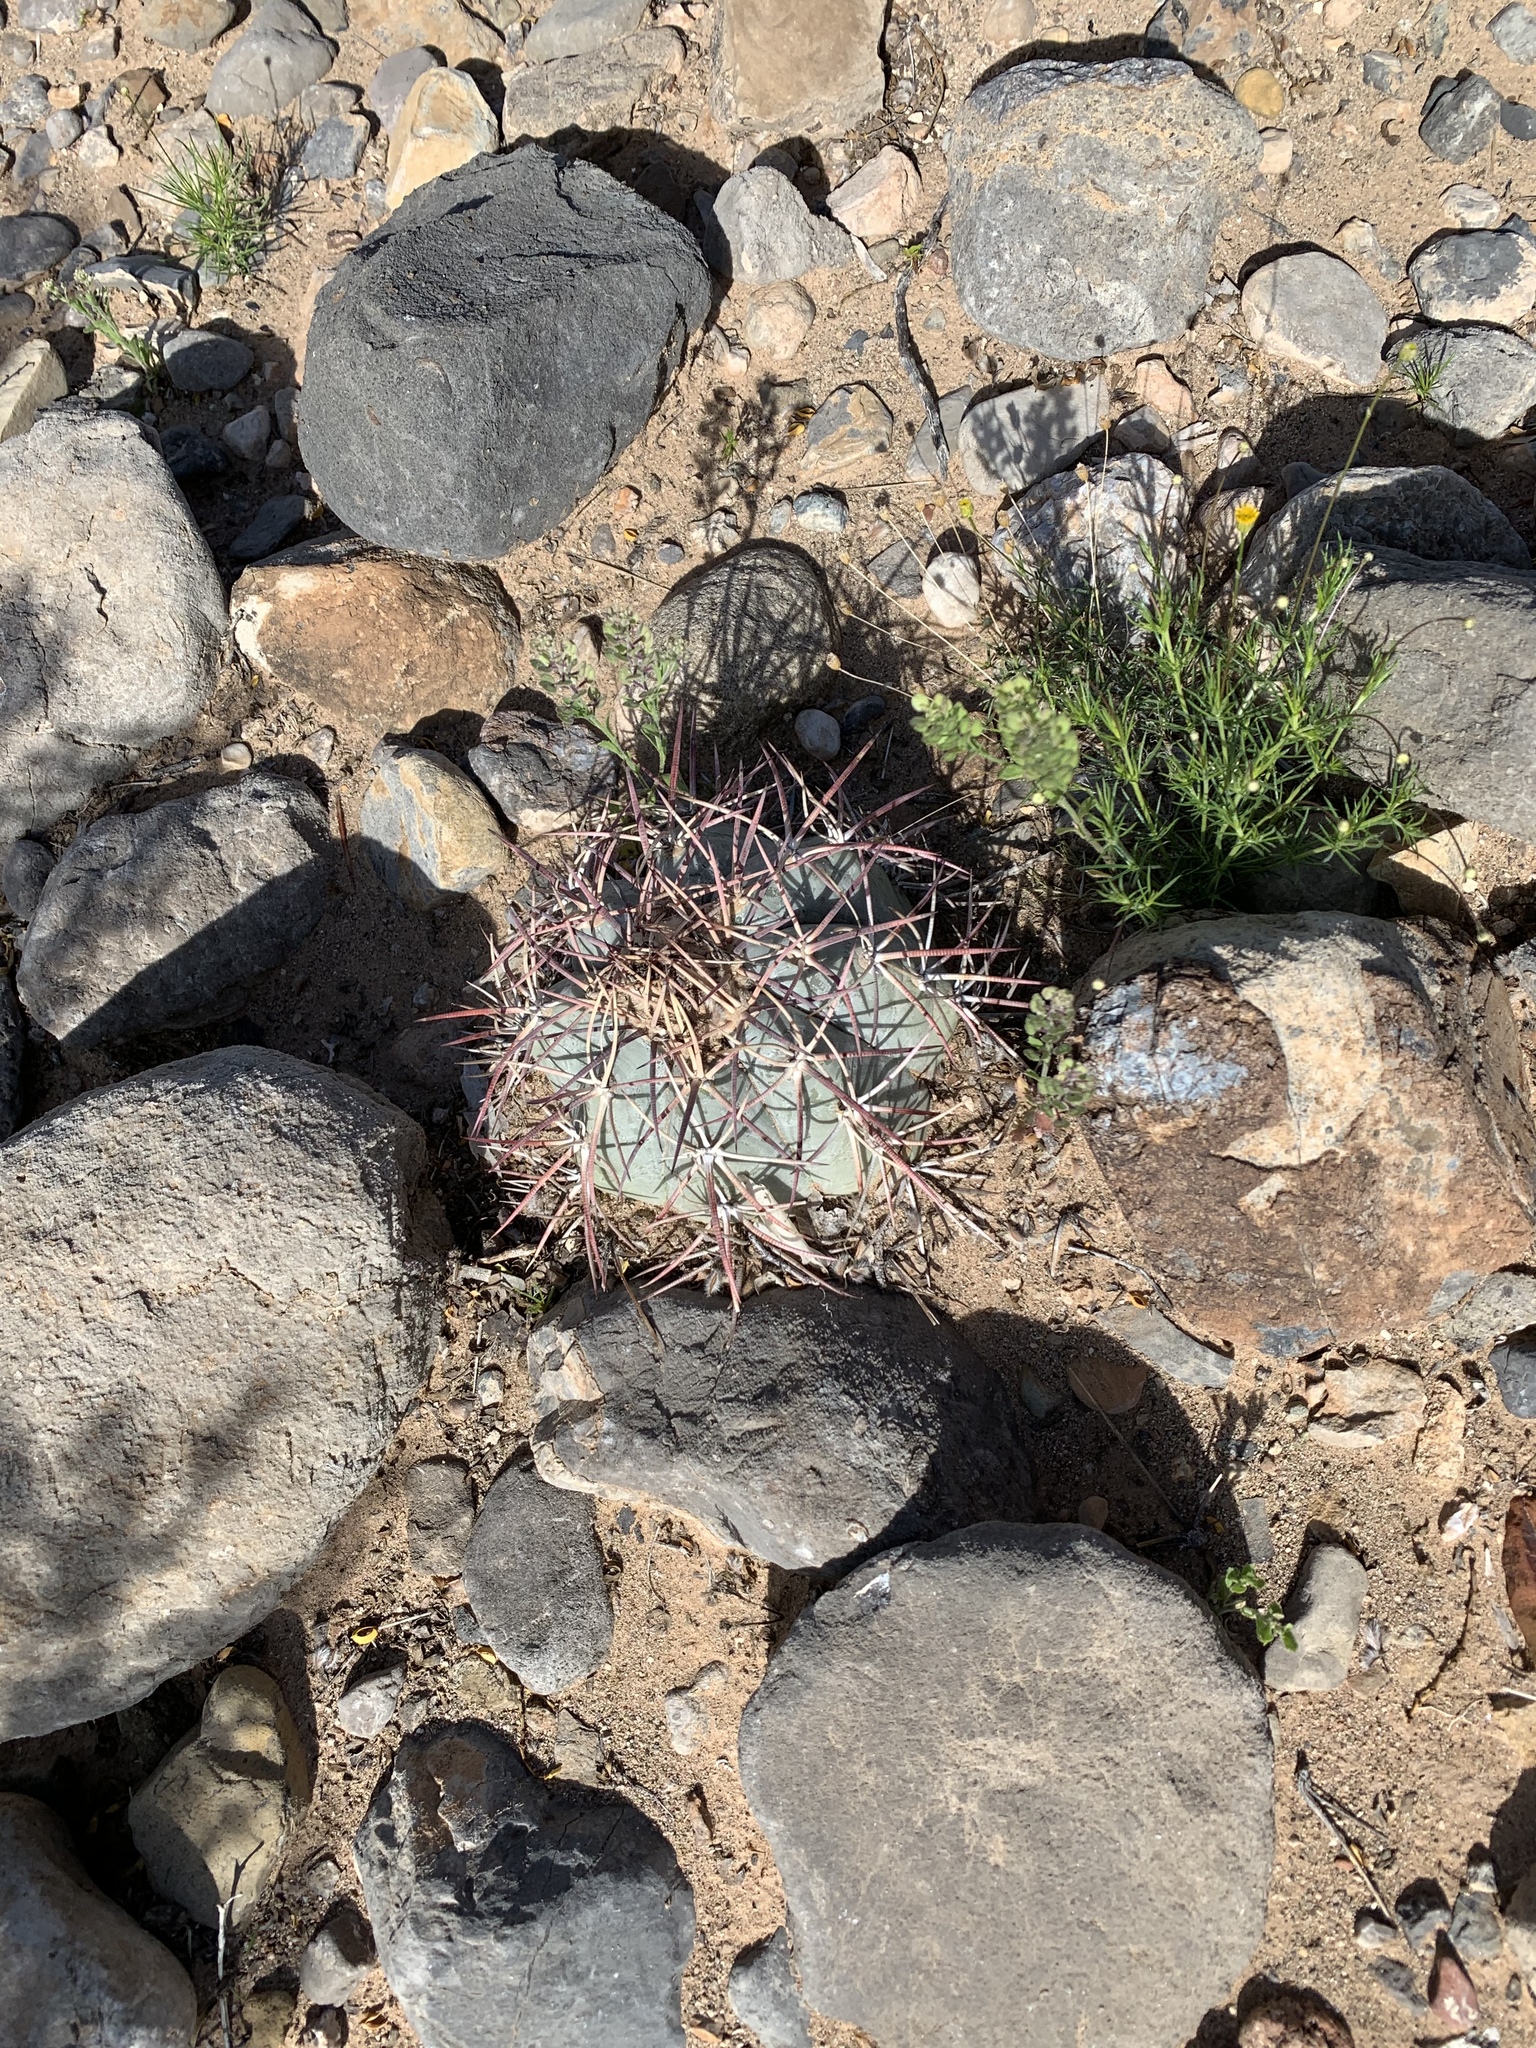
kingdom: Plantae
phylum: Tracheophyta
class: Magnoliopsida
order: Caryophyllales
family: Cactaceae
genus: Echinocactus
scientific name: Echinocactus horizonthalonius
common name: Devilshead
